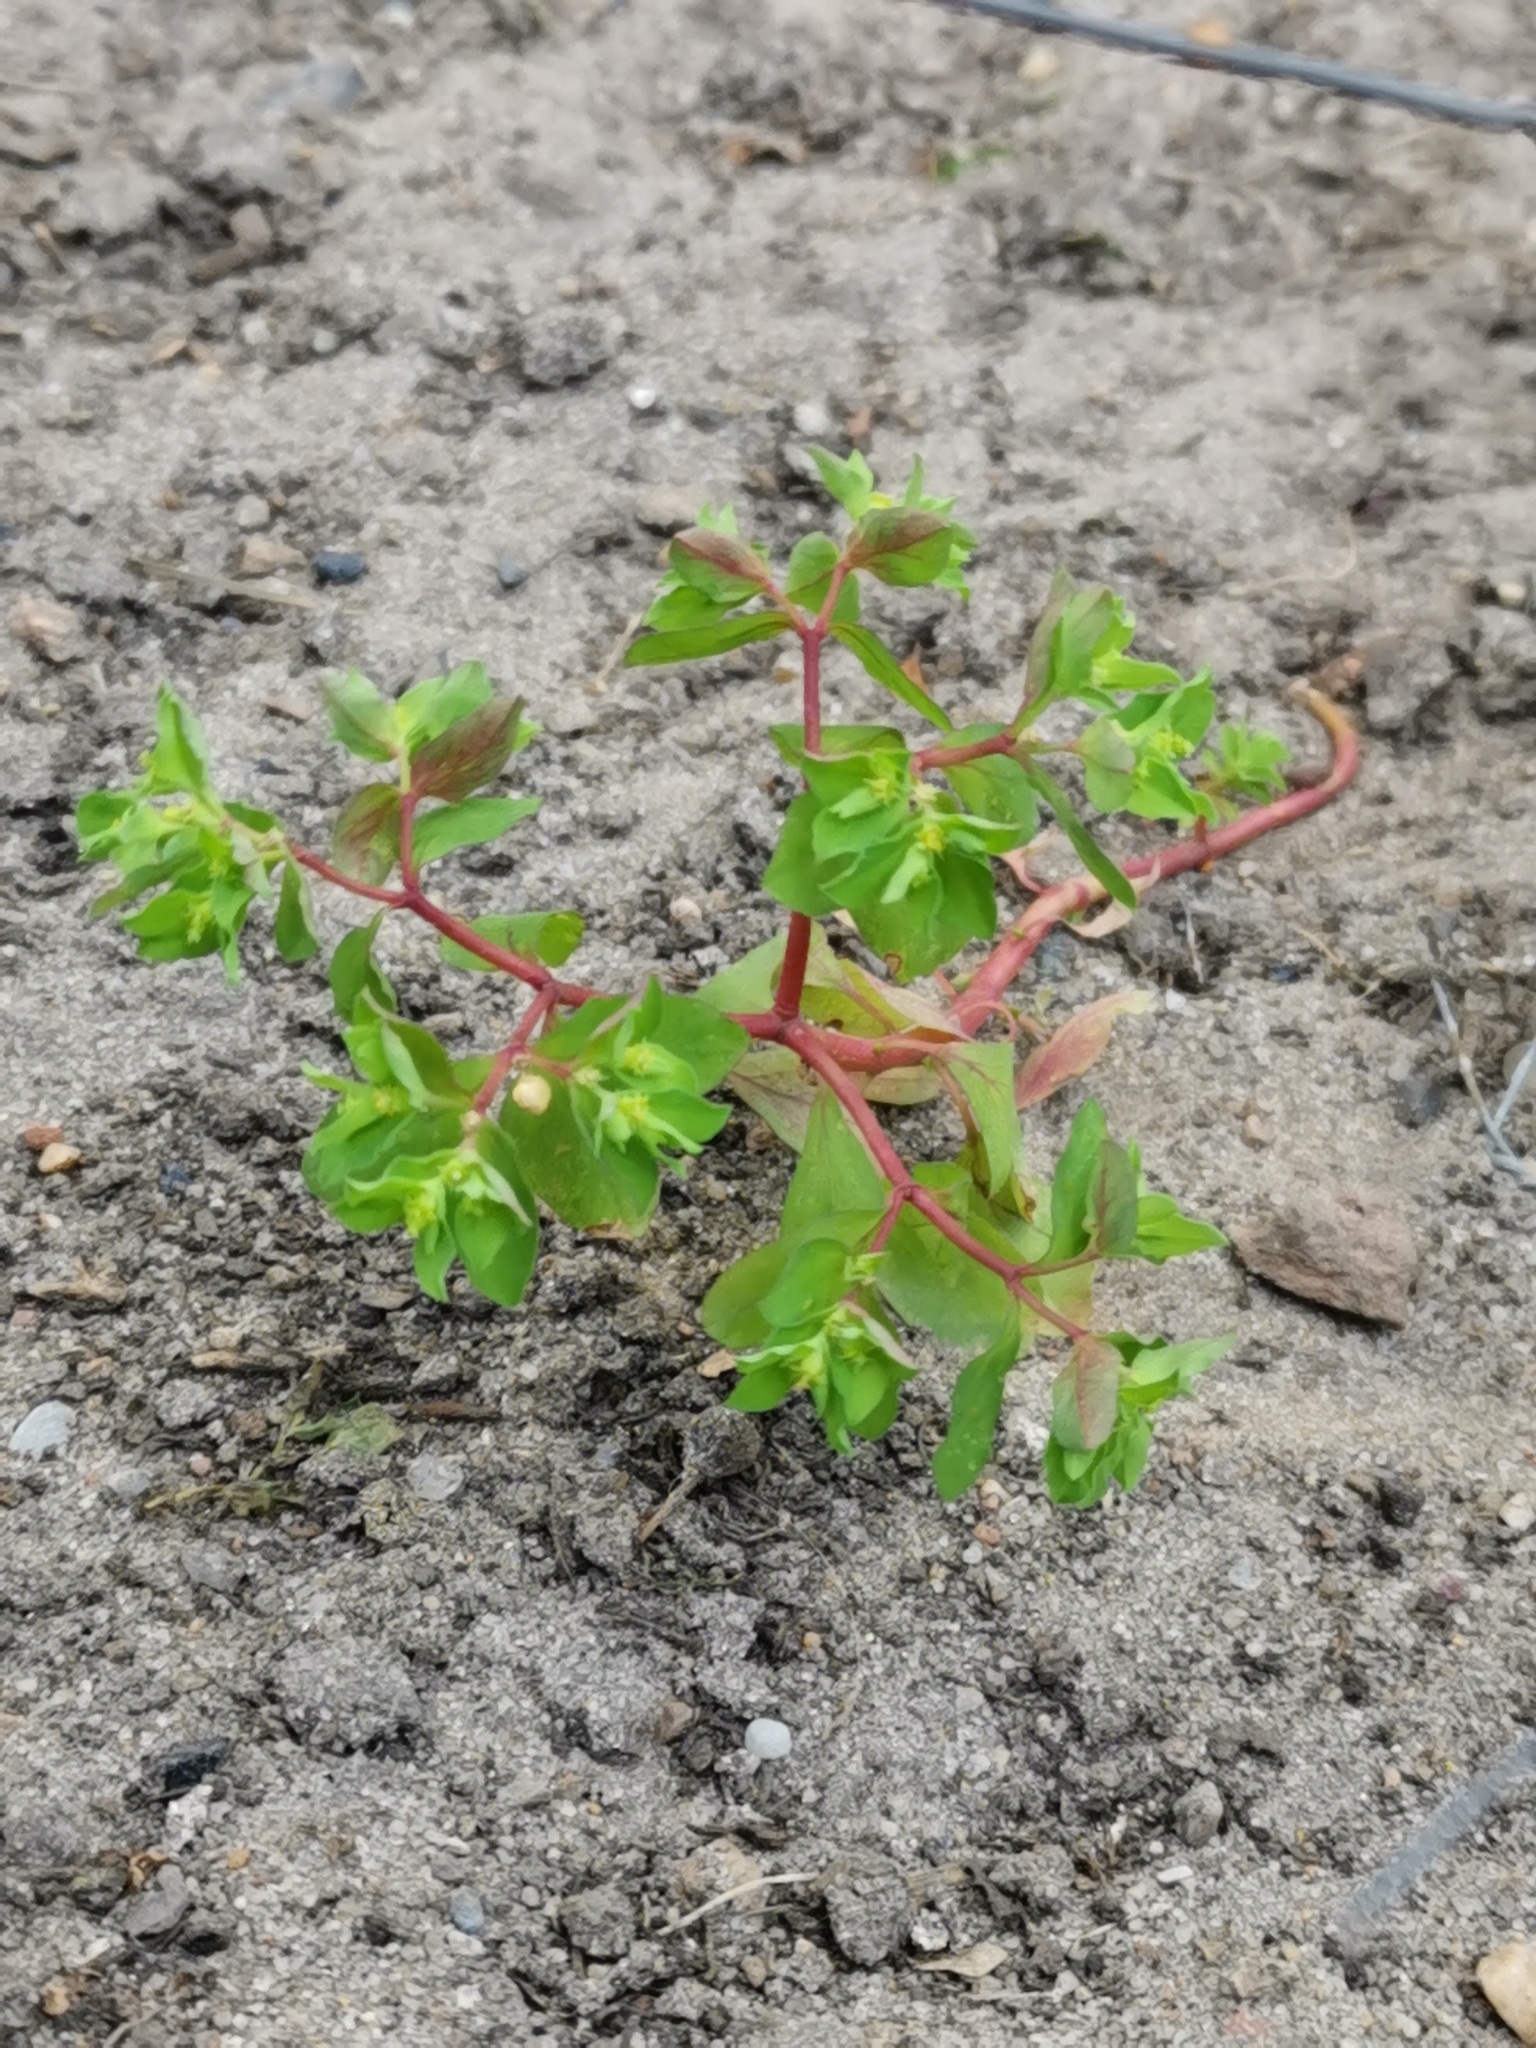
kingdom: Plantae
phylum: Tracheophyta
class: Magnoliopsida
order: Malpighiales
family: Euphorbiaceae
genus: Euphorbia
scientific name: Euphorbia peplus
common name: Petty spurge
